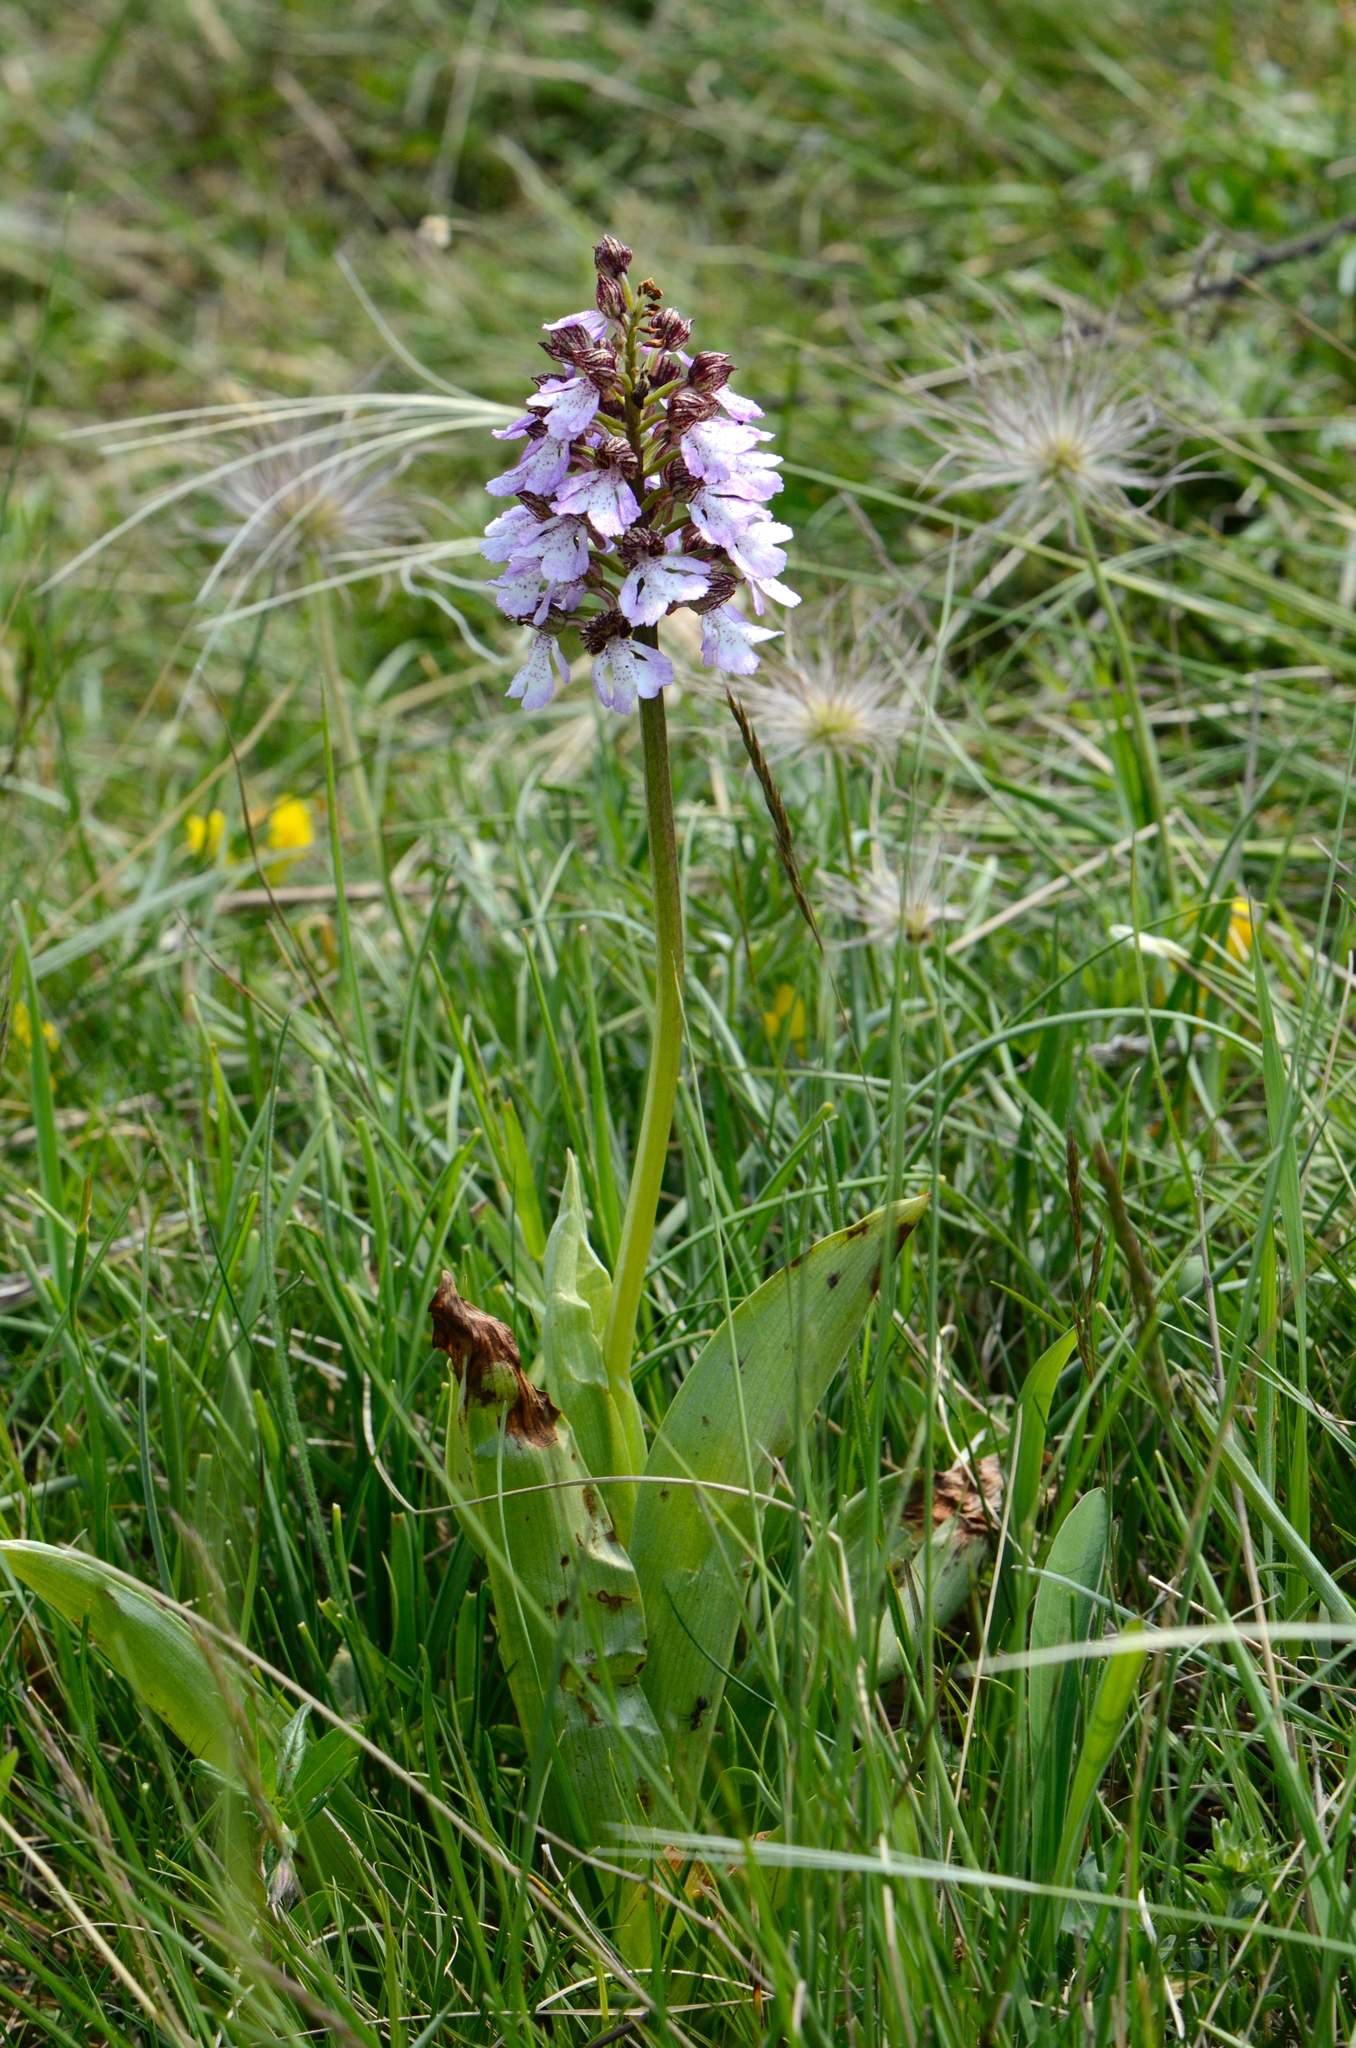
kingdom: Plantae
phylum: Tracheophyta
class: Liliopsida
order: Asparagales
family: Orchidaceae
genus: Orchis
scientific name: Orchis purpurea
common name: Lady orchid
